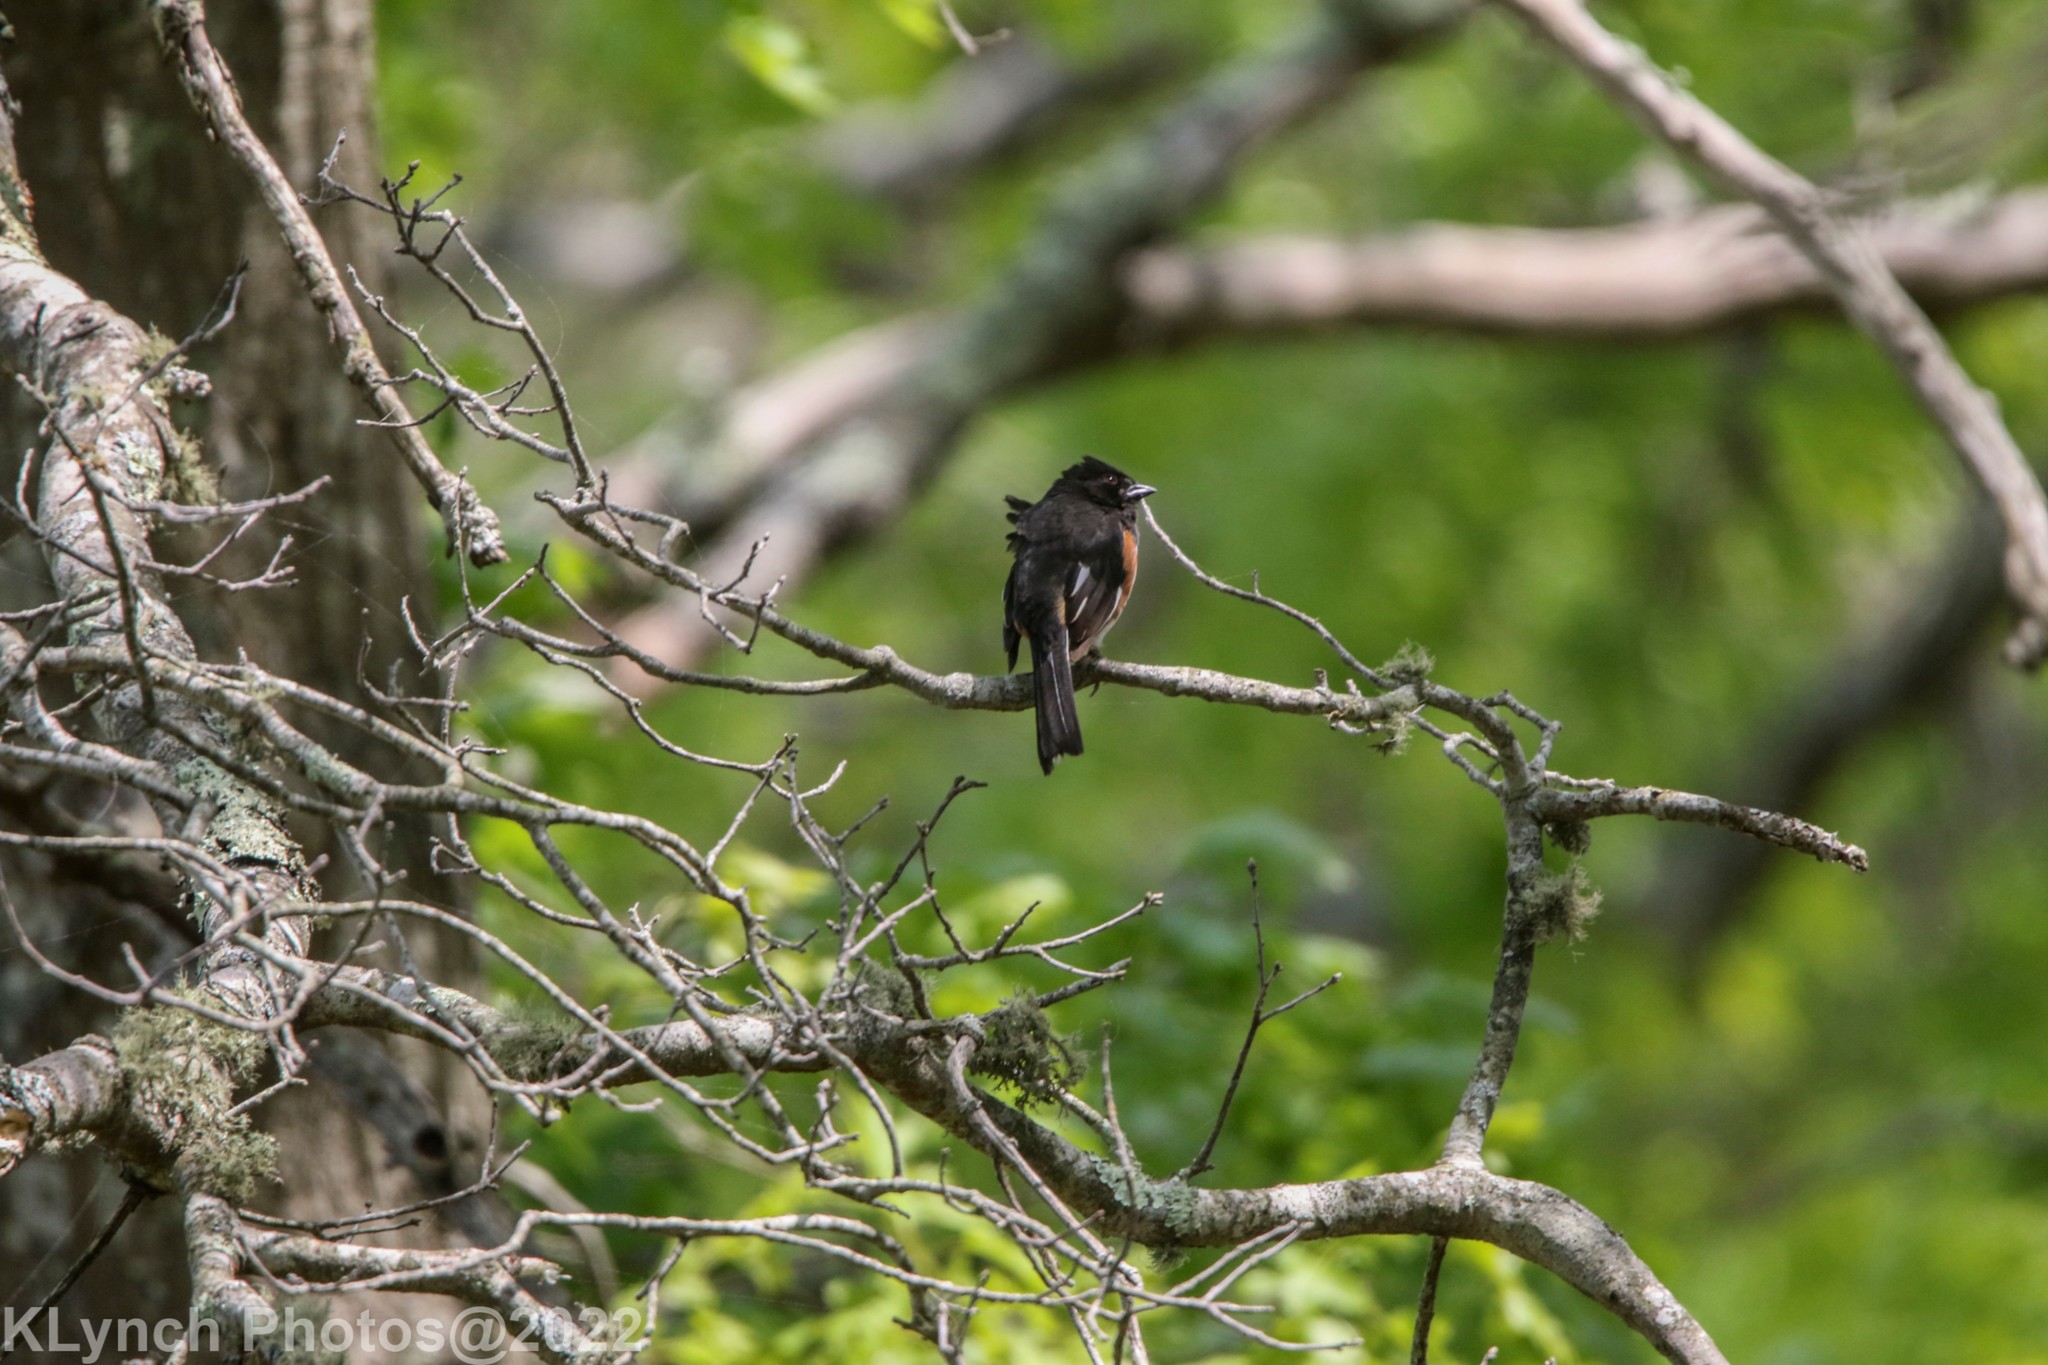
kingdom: Animalia
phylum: Chordata
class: Aves
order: Passeriformes
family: Passerellidae
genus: Pipilo
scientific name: Pipilo erythrophthalmus
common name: Eastern towhee
